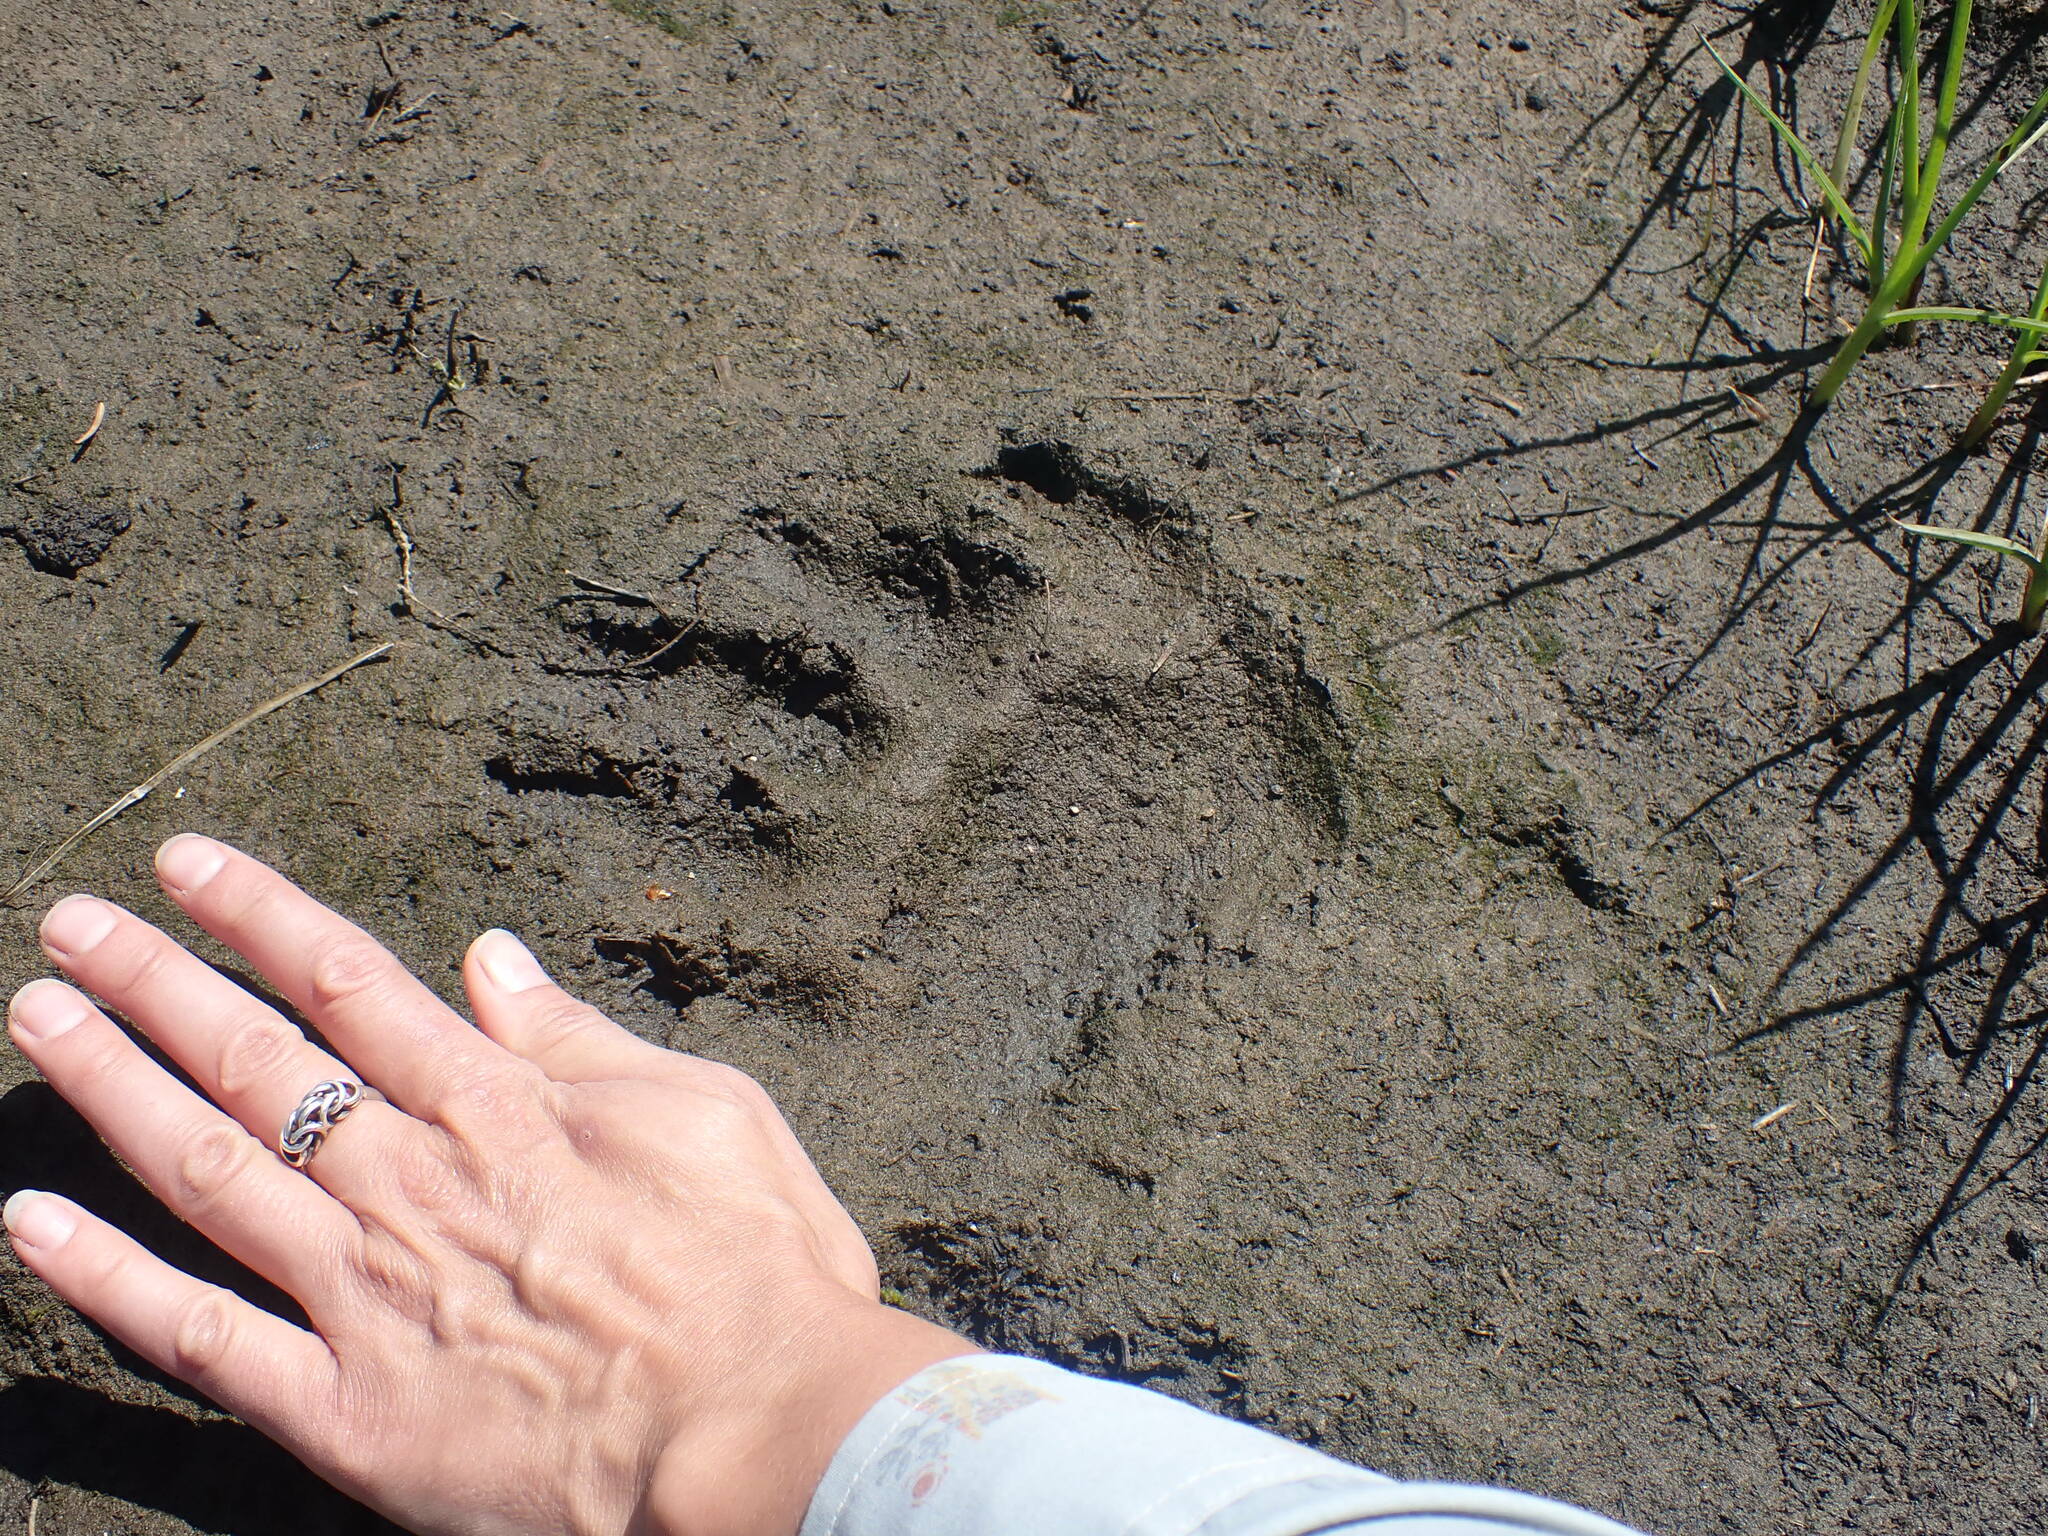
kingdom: Animalia
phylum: Chordata
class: Mammalia
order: Carnivora
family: Ursidae
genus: Ursus
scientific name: Ursus americanus
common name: American black bear
